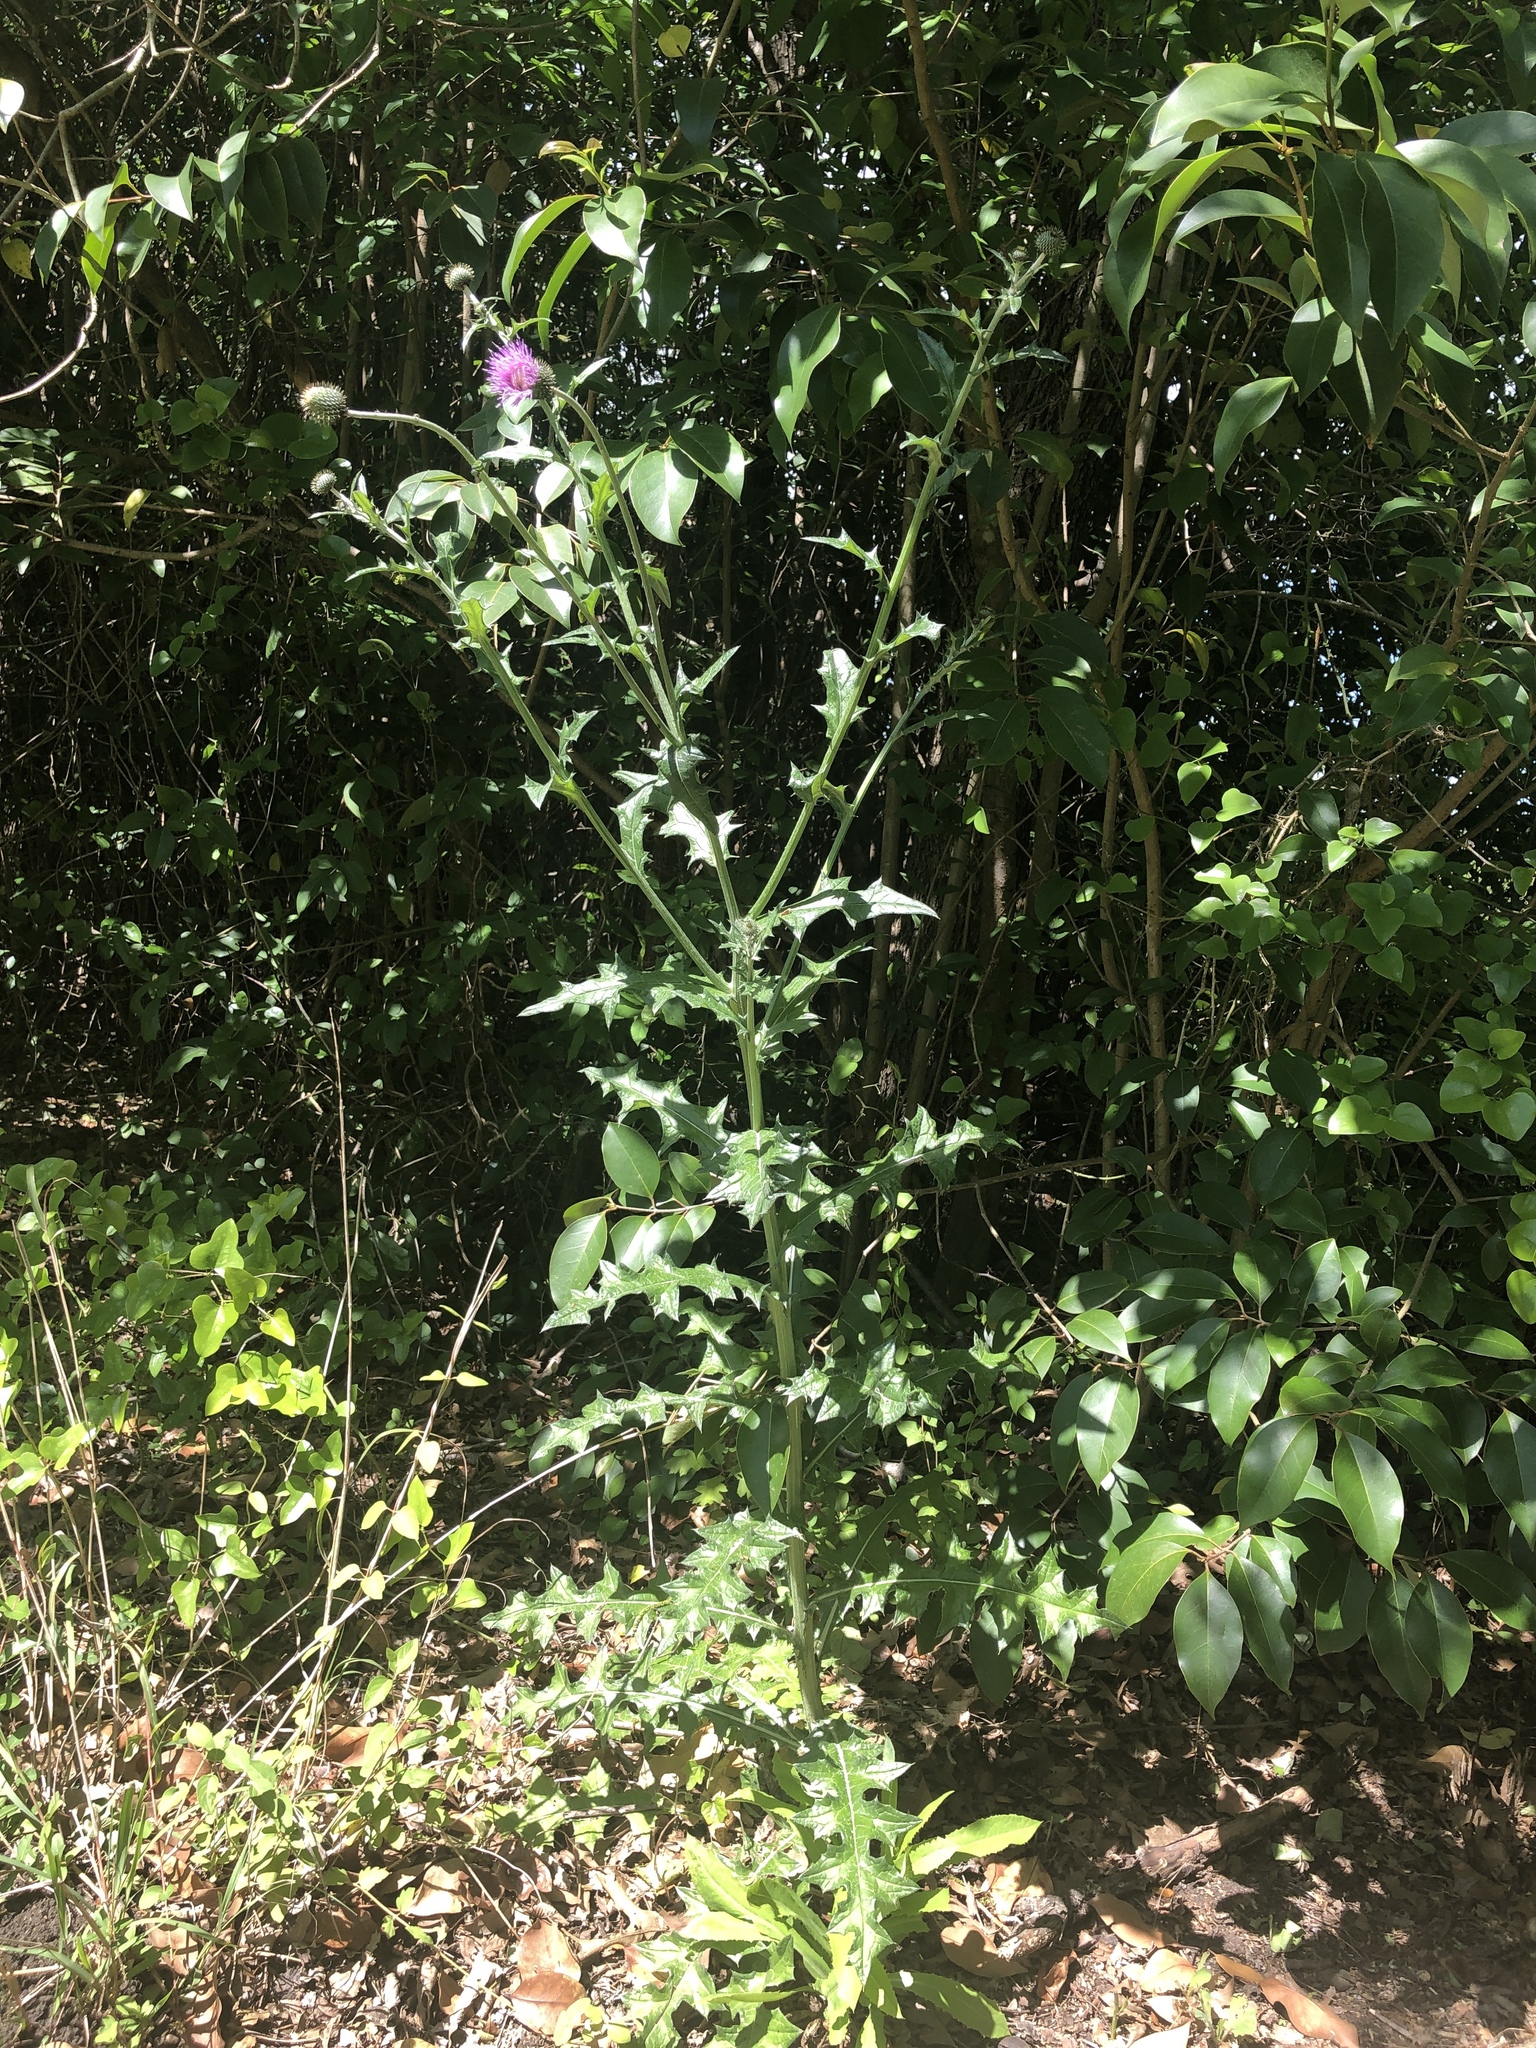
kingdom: Plantae
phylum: Tracheophyta
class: Magnoliopsida
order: Asterales
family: Asteraceae
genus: Cirsium
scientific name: Cirsium texanum
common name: Texas purple thistle
